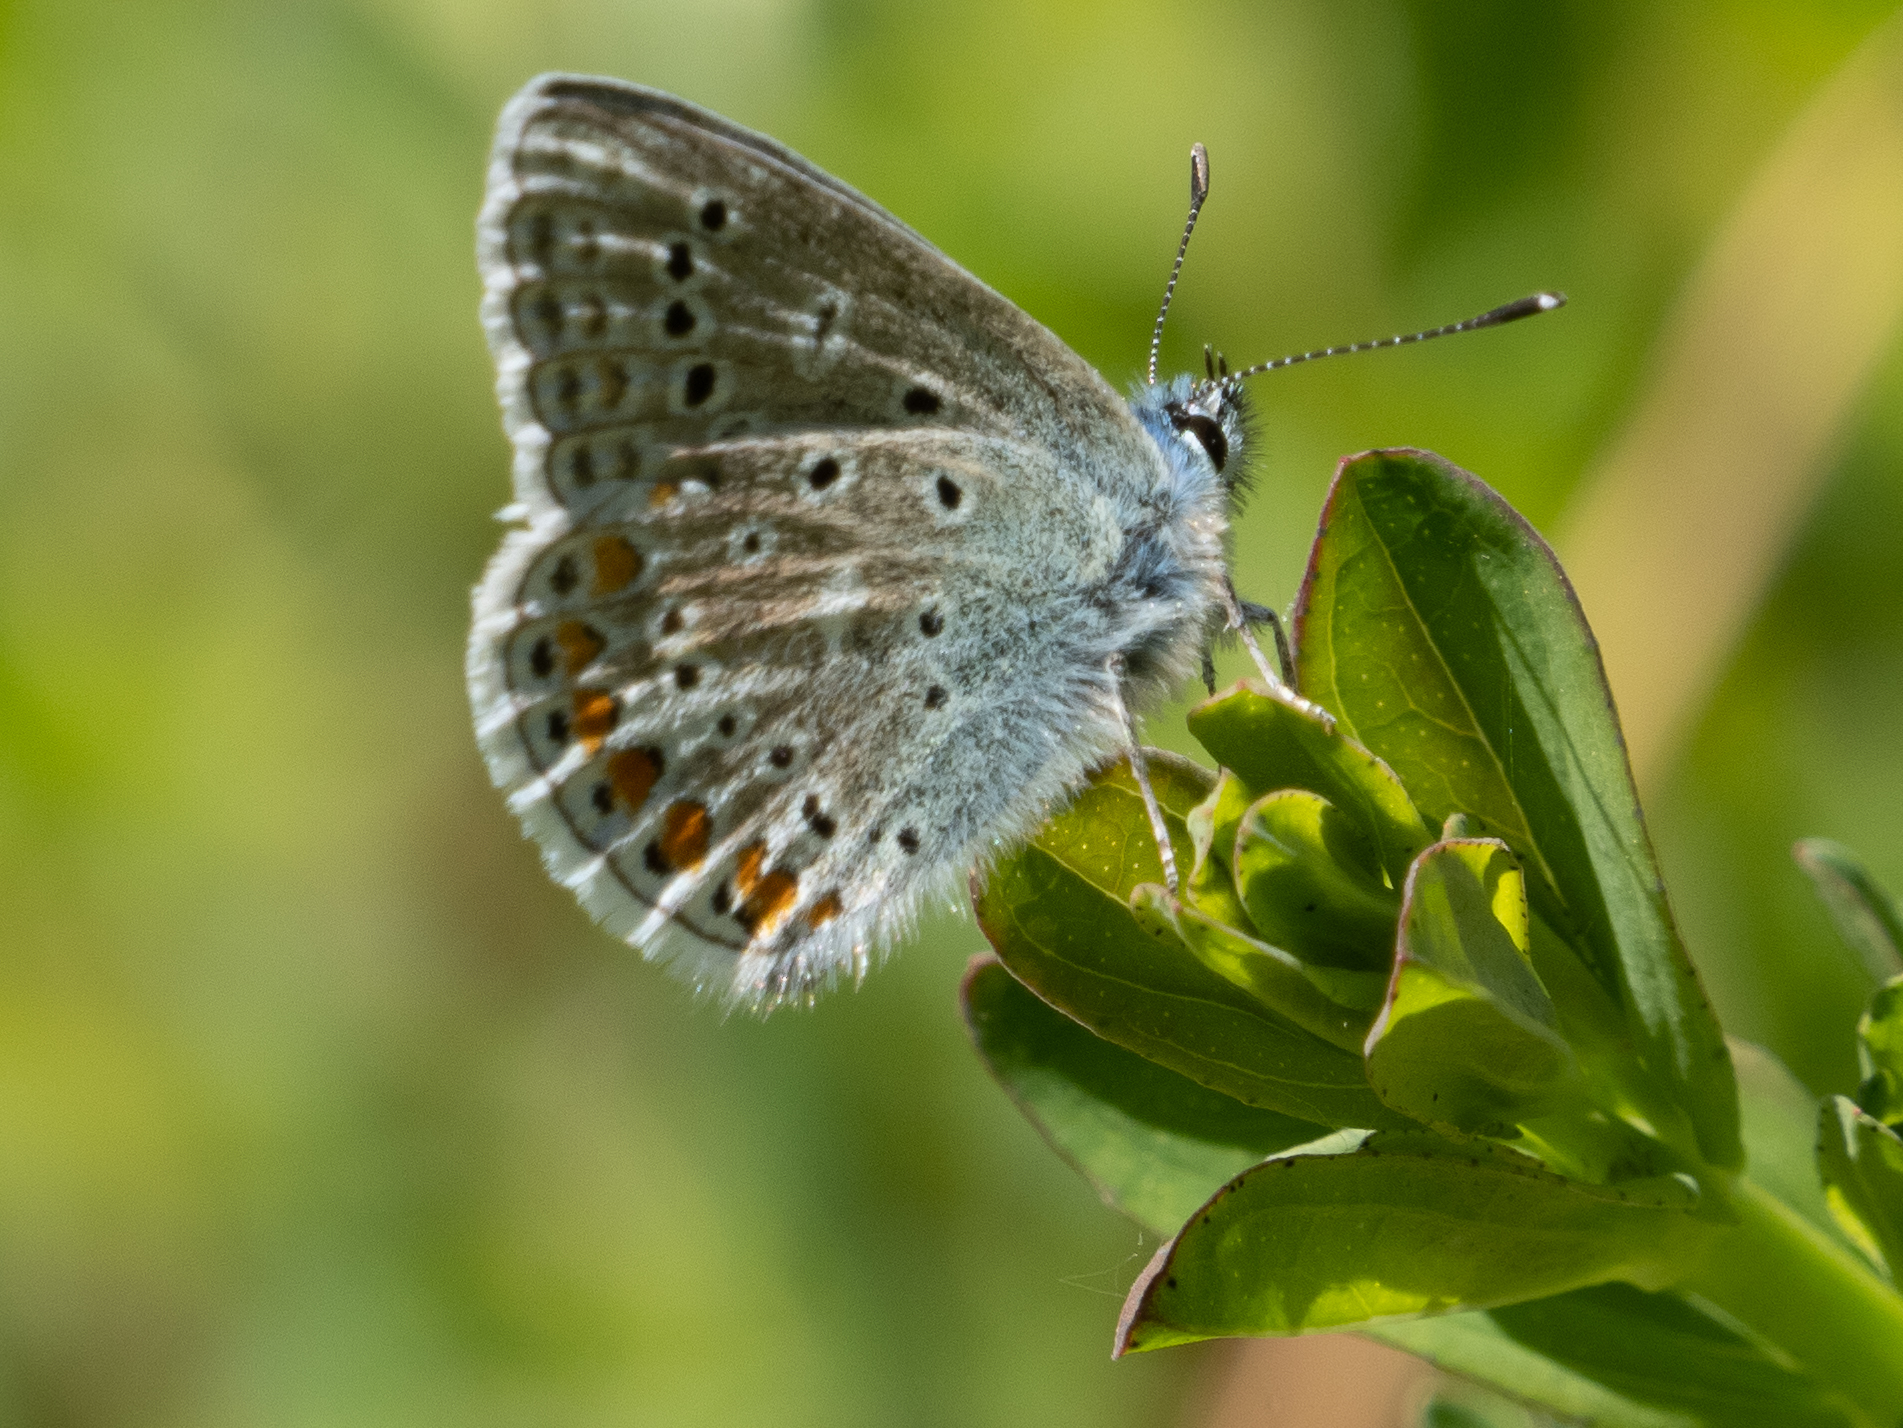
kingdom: Animalia
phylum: Arthropoda
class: Insecta
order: Lepidoptera
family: Lycaenidae
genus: Polyommatus
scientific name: Polyommatus icarus
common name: Common blue
